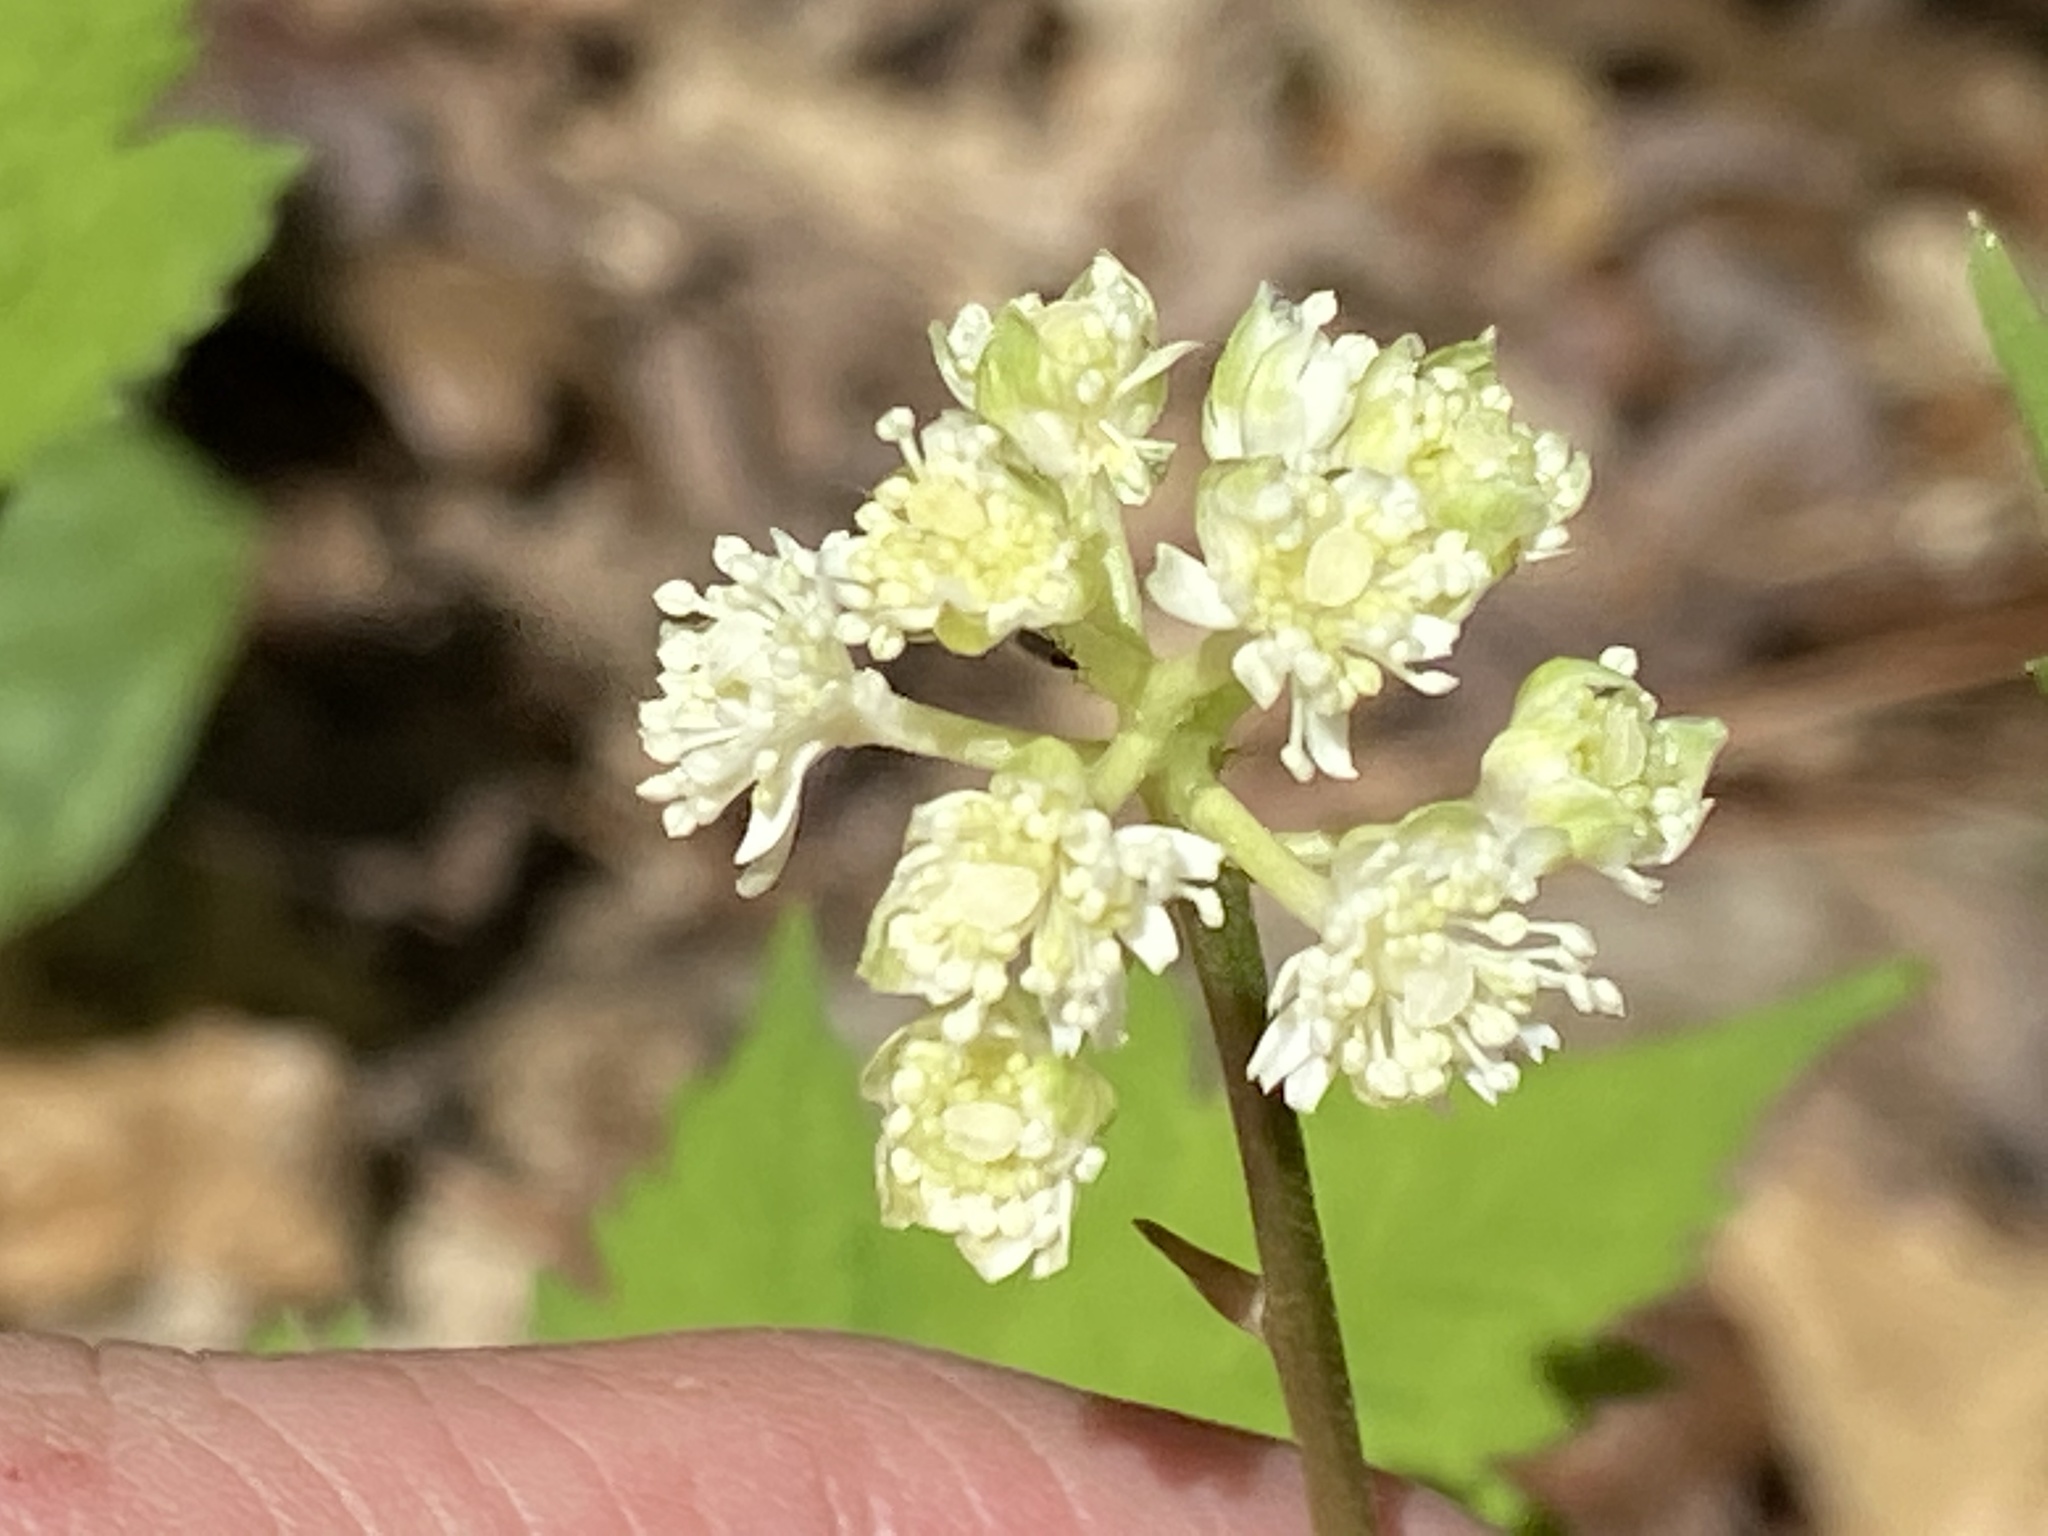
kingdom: Plantae
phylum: Tracheophyta
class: Magnoliopsida
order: Ranunculales
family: Ranunculaceae
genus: Actaea
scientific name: Actaea pachypoda
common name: Doll's-eyes
